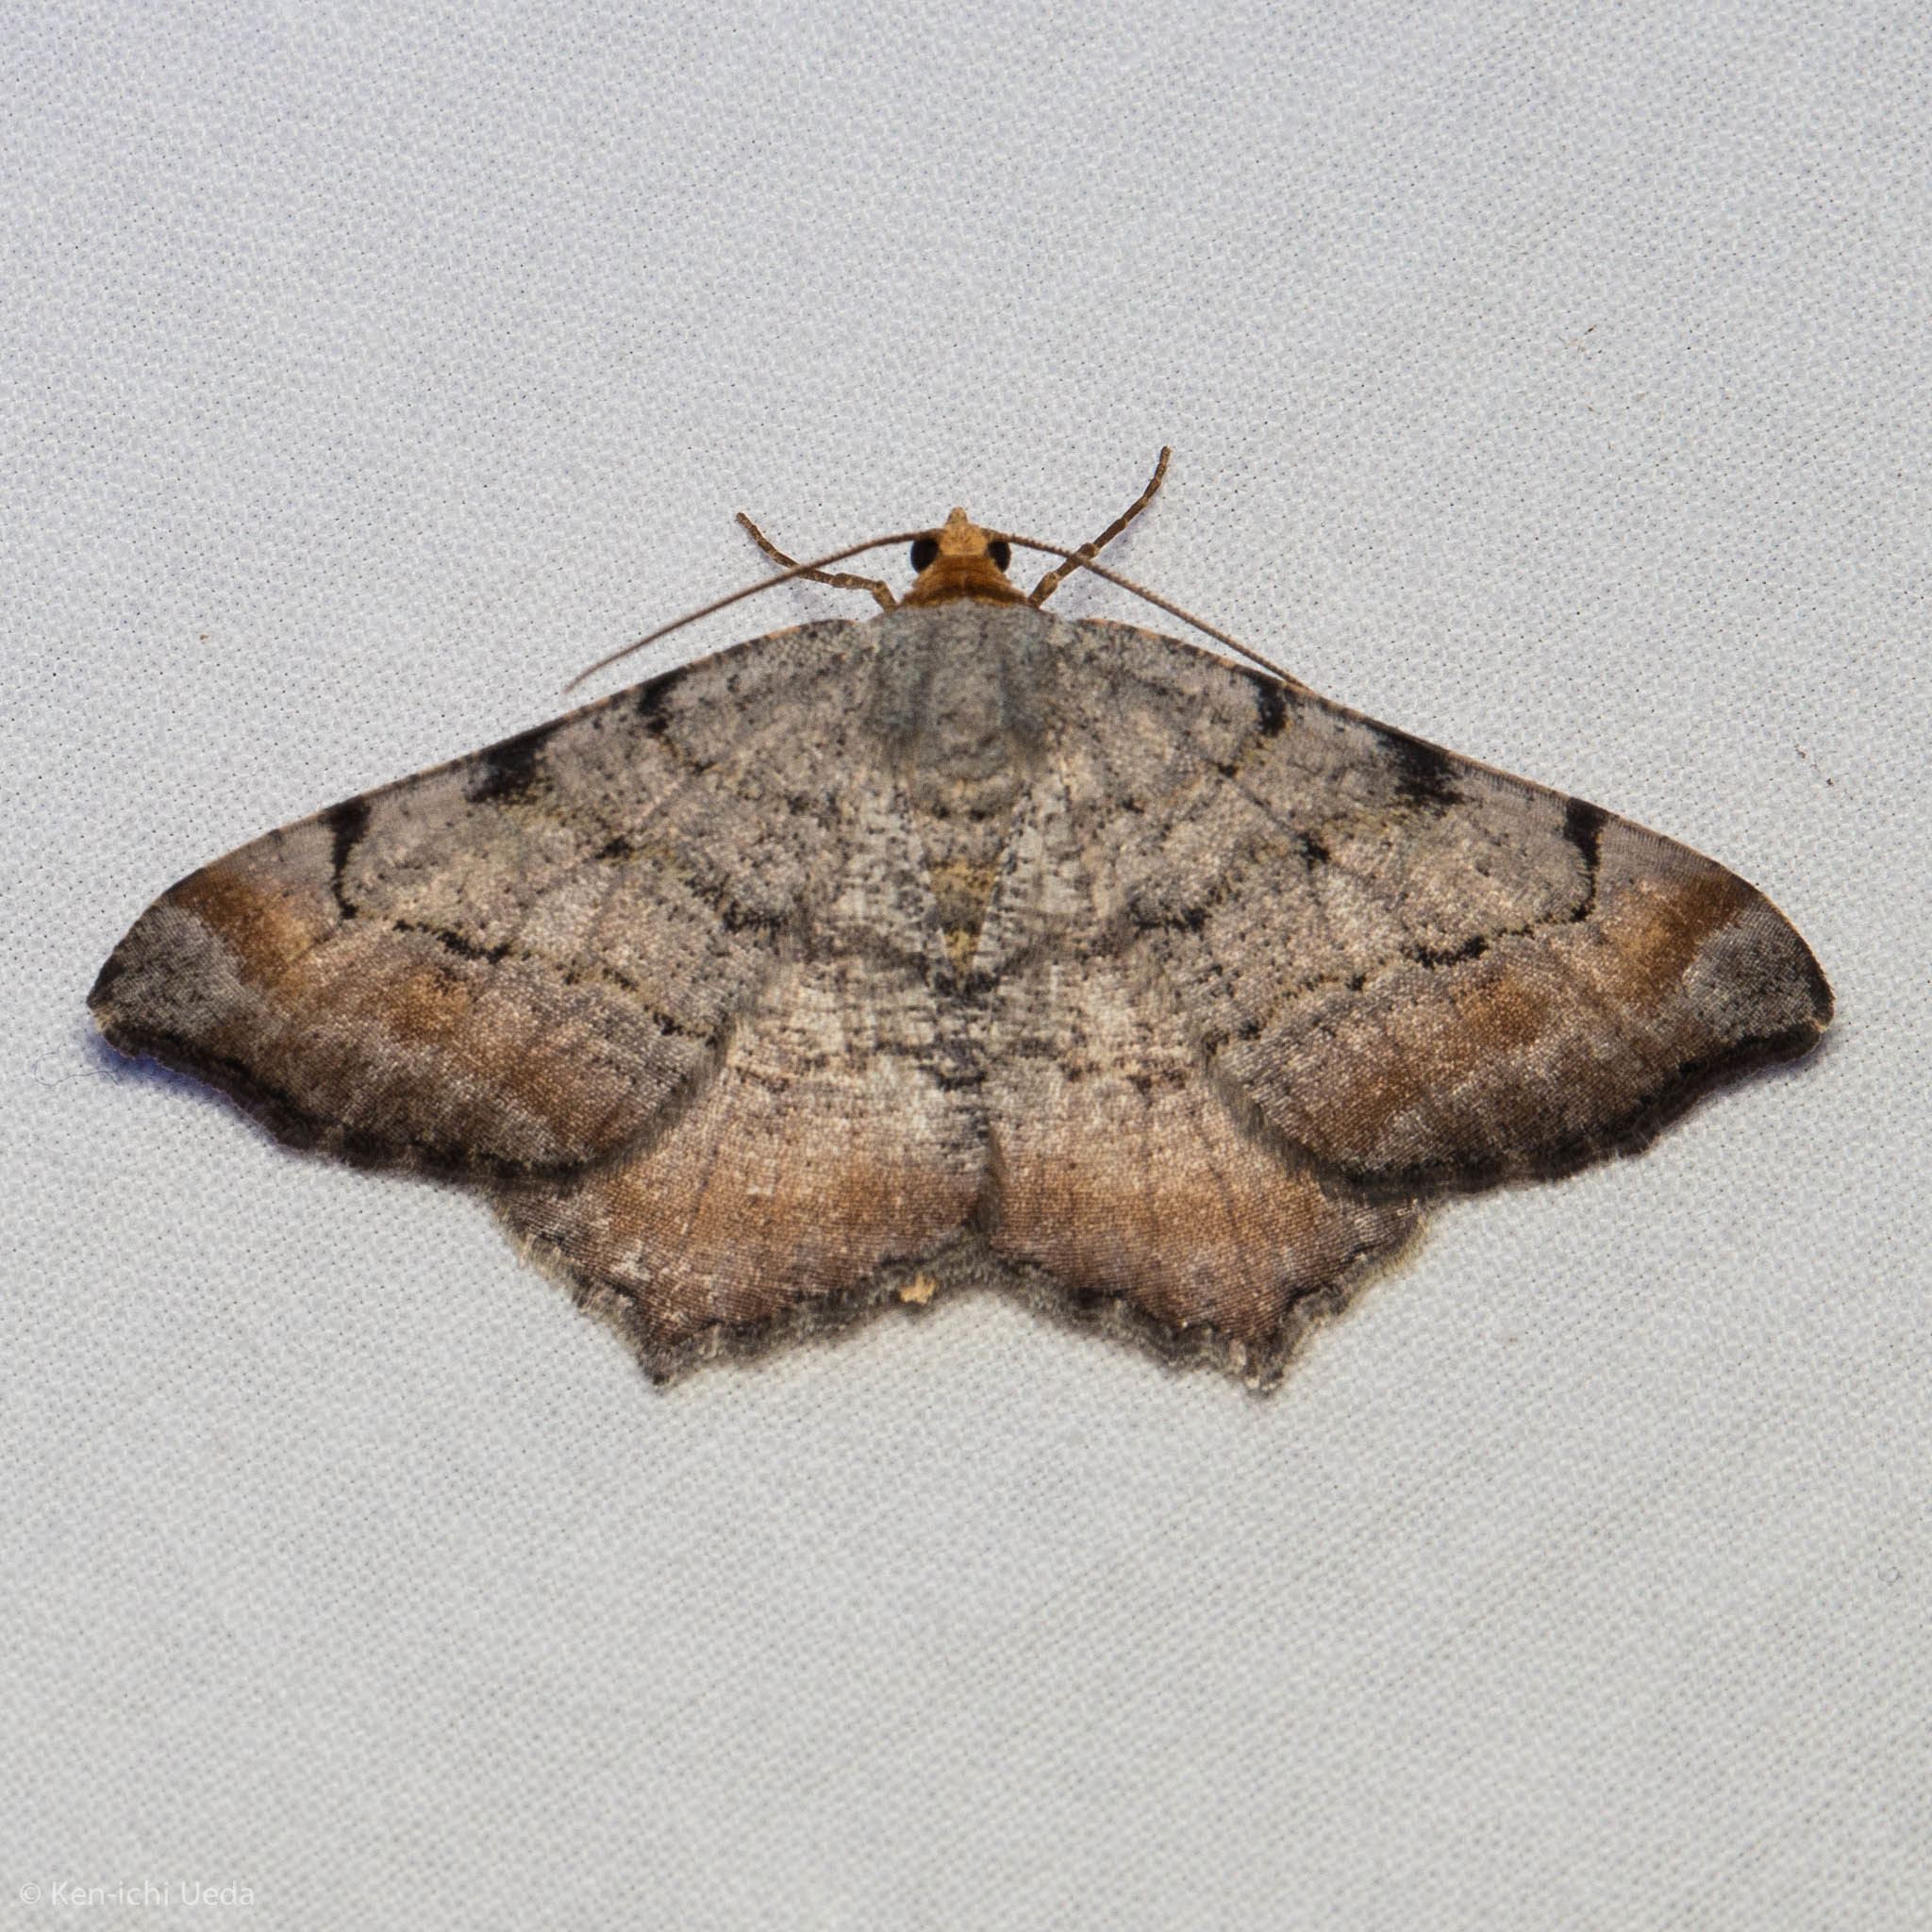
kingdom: Animalia
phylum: Arthropoda
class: Insecta
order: Lepidoptera
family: Geometridae
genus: Macaria
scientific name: Macaria adonis
